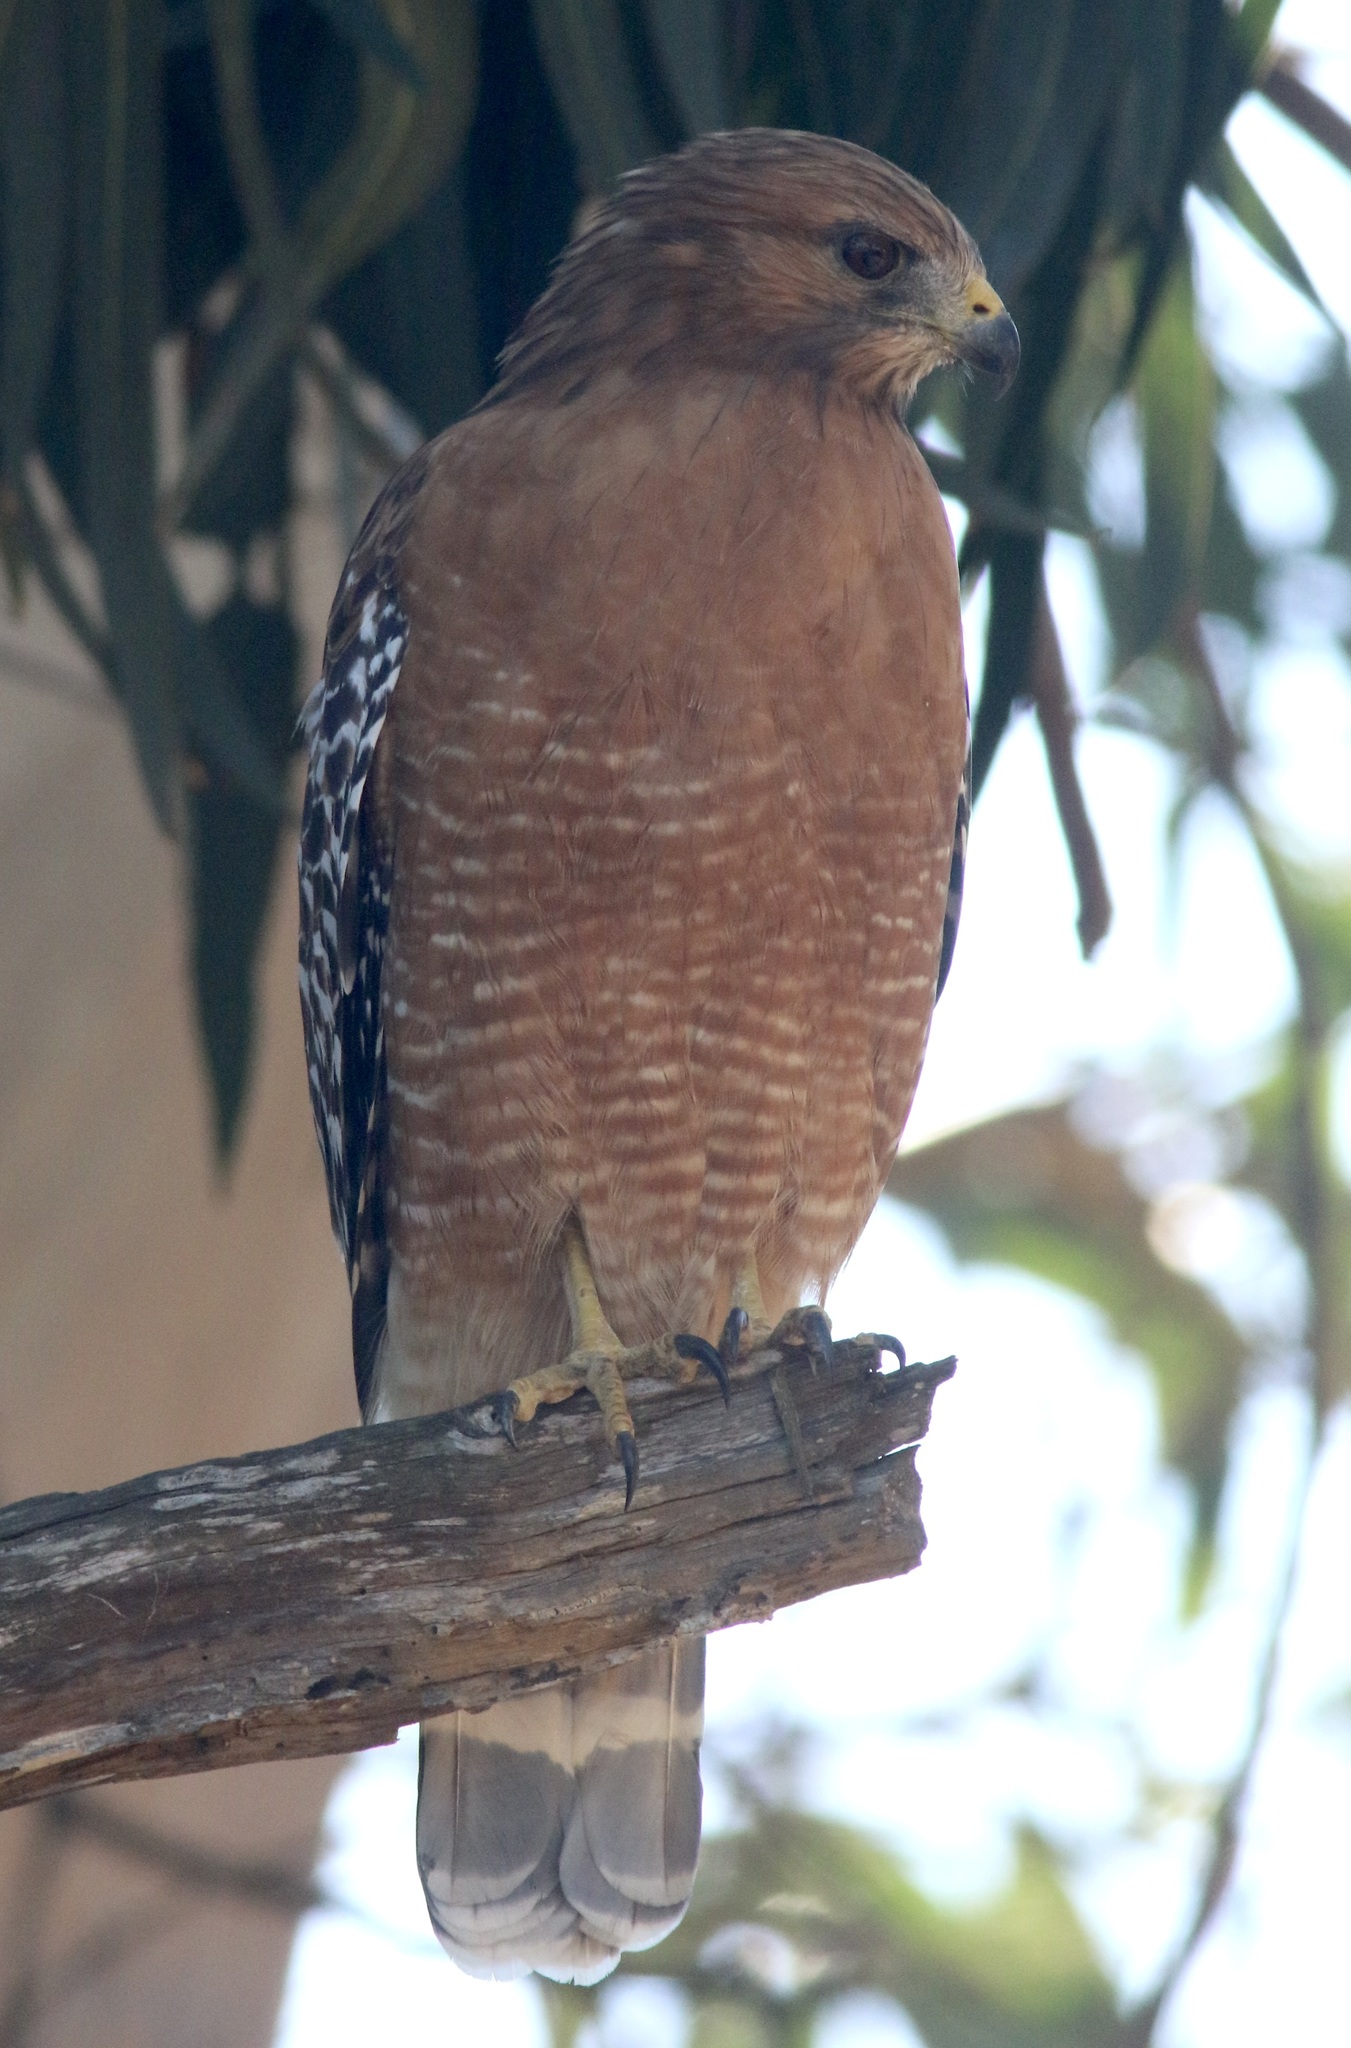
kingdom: Animalia
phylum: Chordata
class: Aves
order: Accipitriformes
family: Accipitridae
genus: Buteo
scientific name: Buteo lineatus
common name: Red-shouldered hawk
